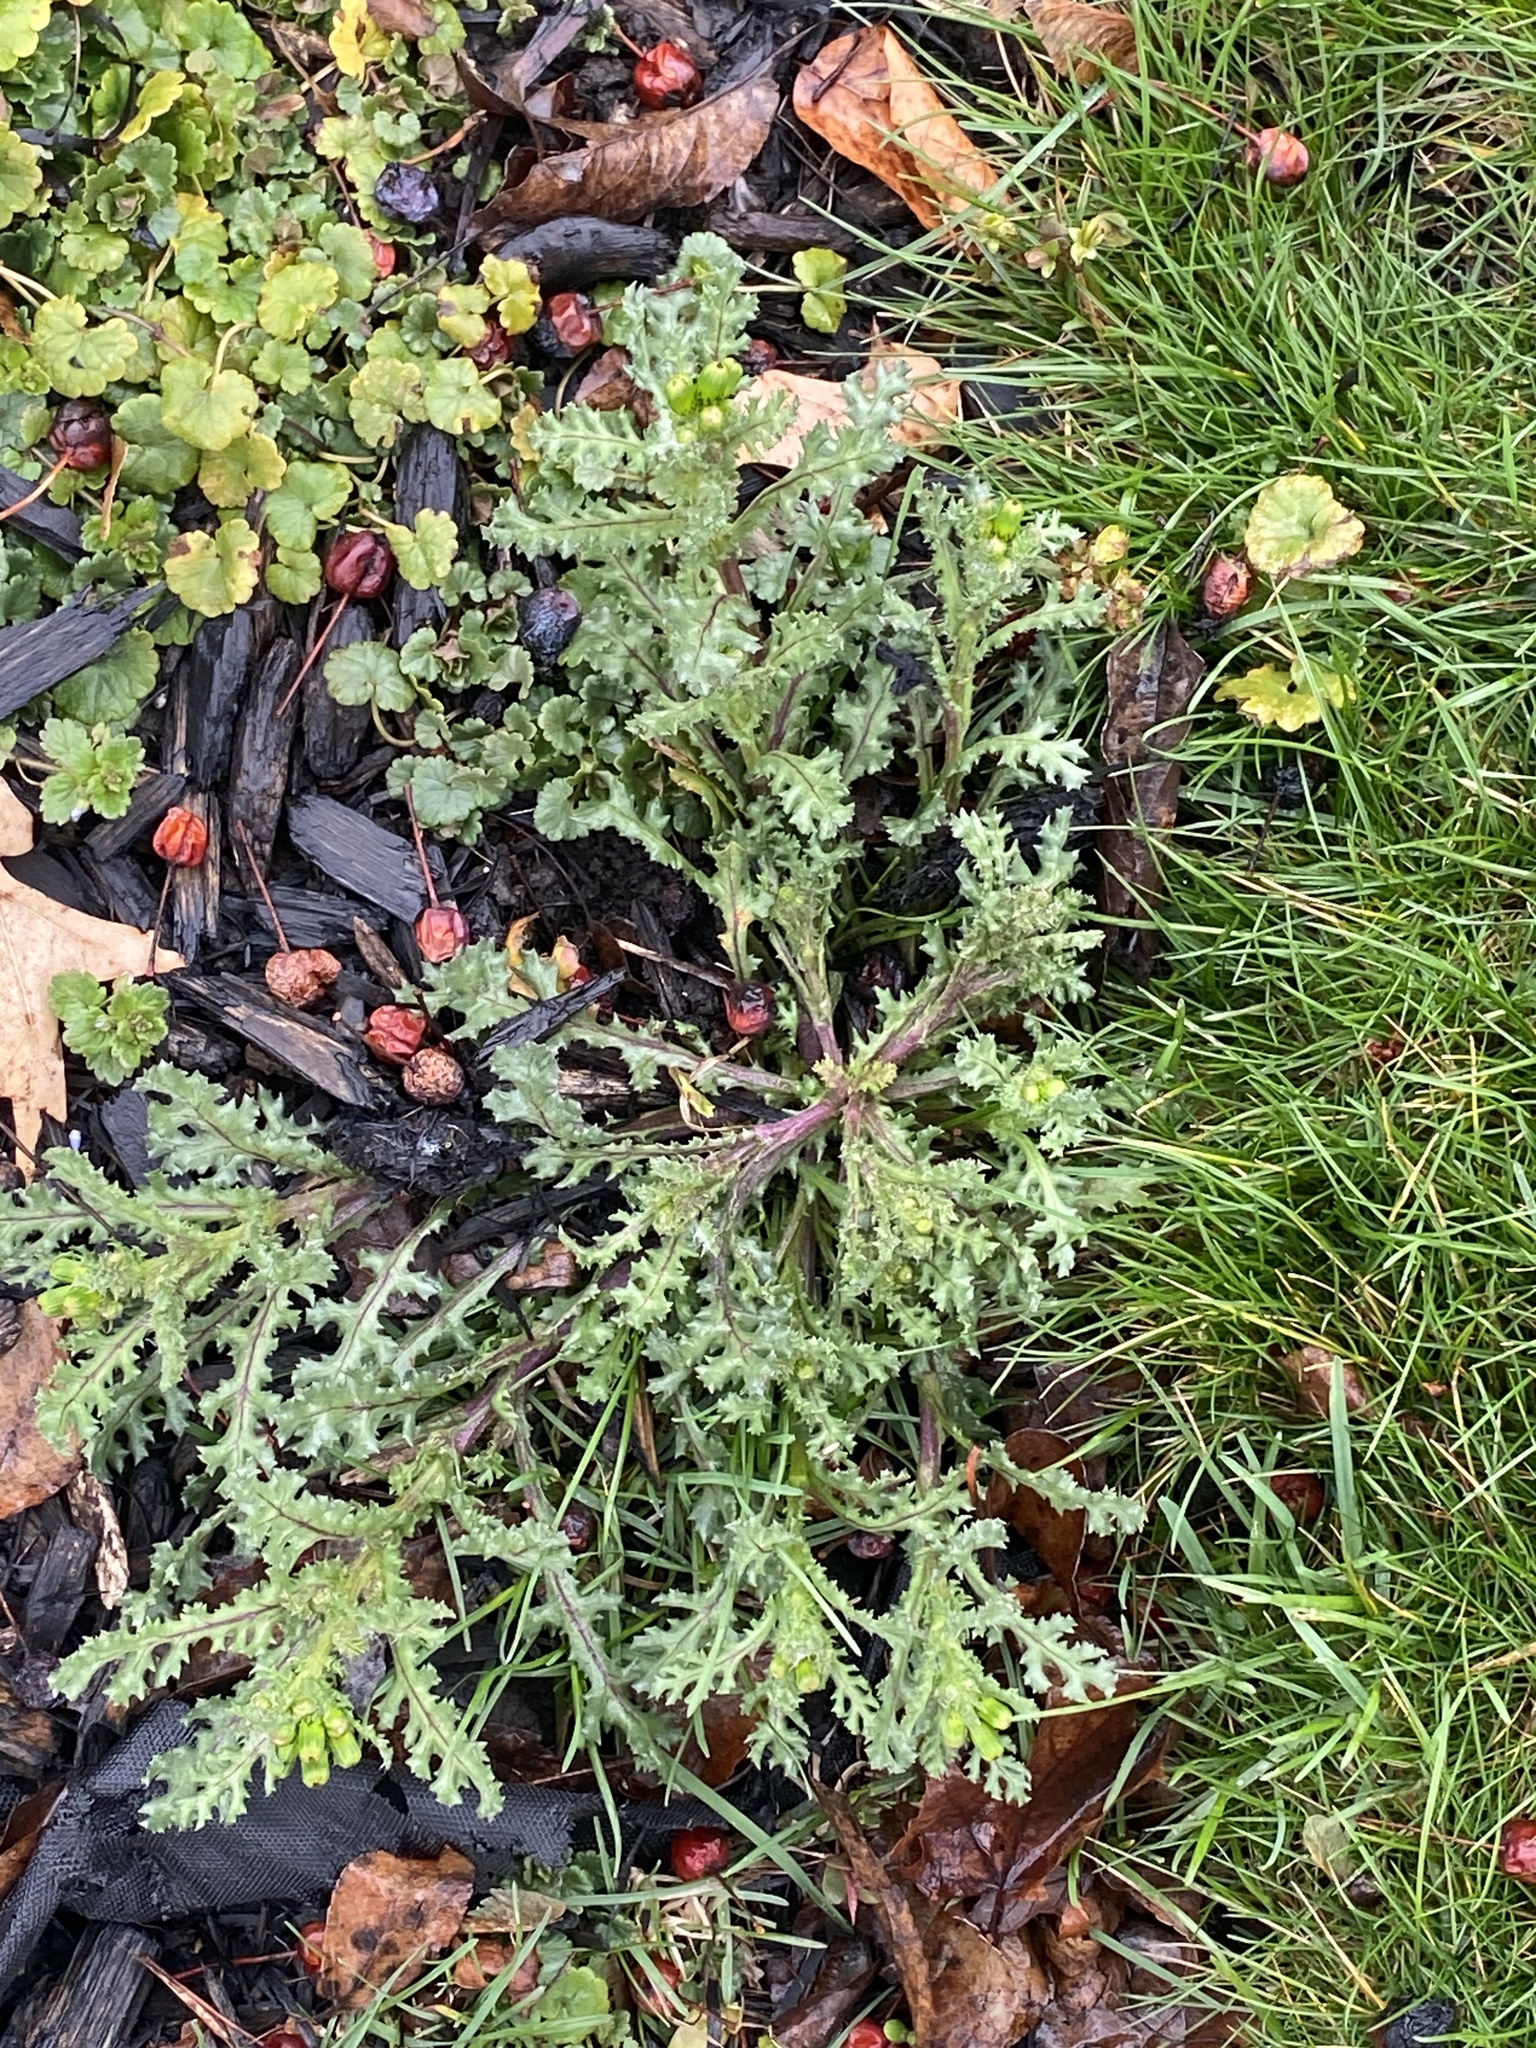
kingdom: Plantae
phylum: Tracheophyta
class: Magnoliopsida
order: Asterales
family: Asteraceae
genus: Senecio
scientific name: Senecio vulgaris
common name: Old-man-in-the-spring
